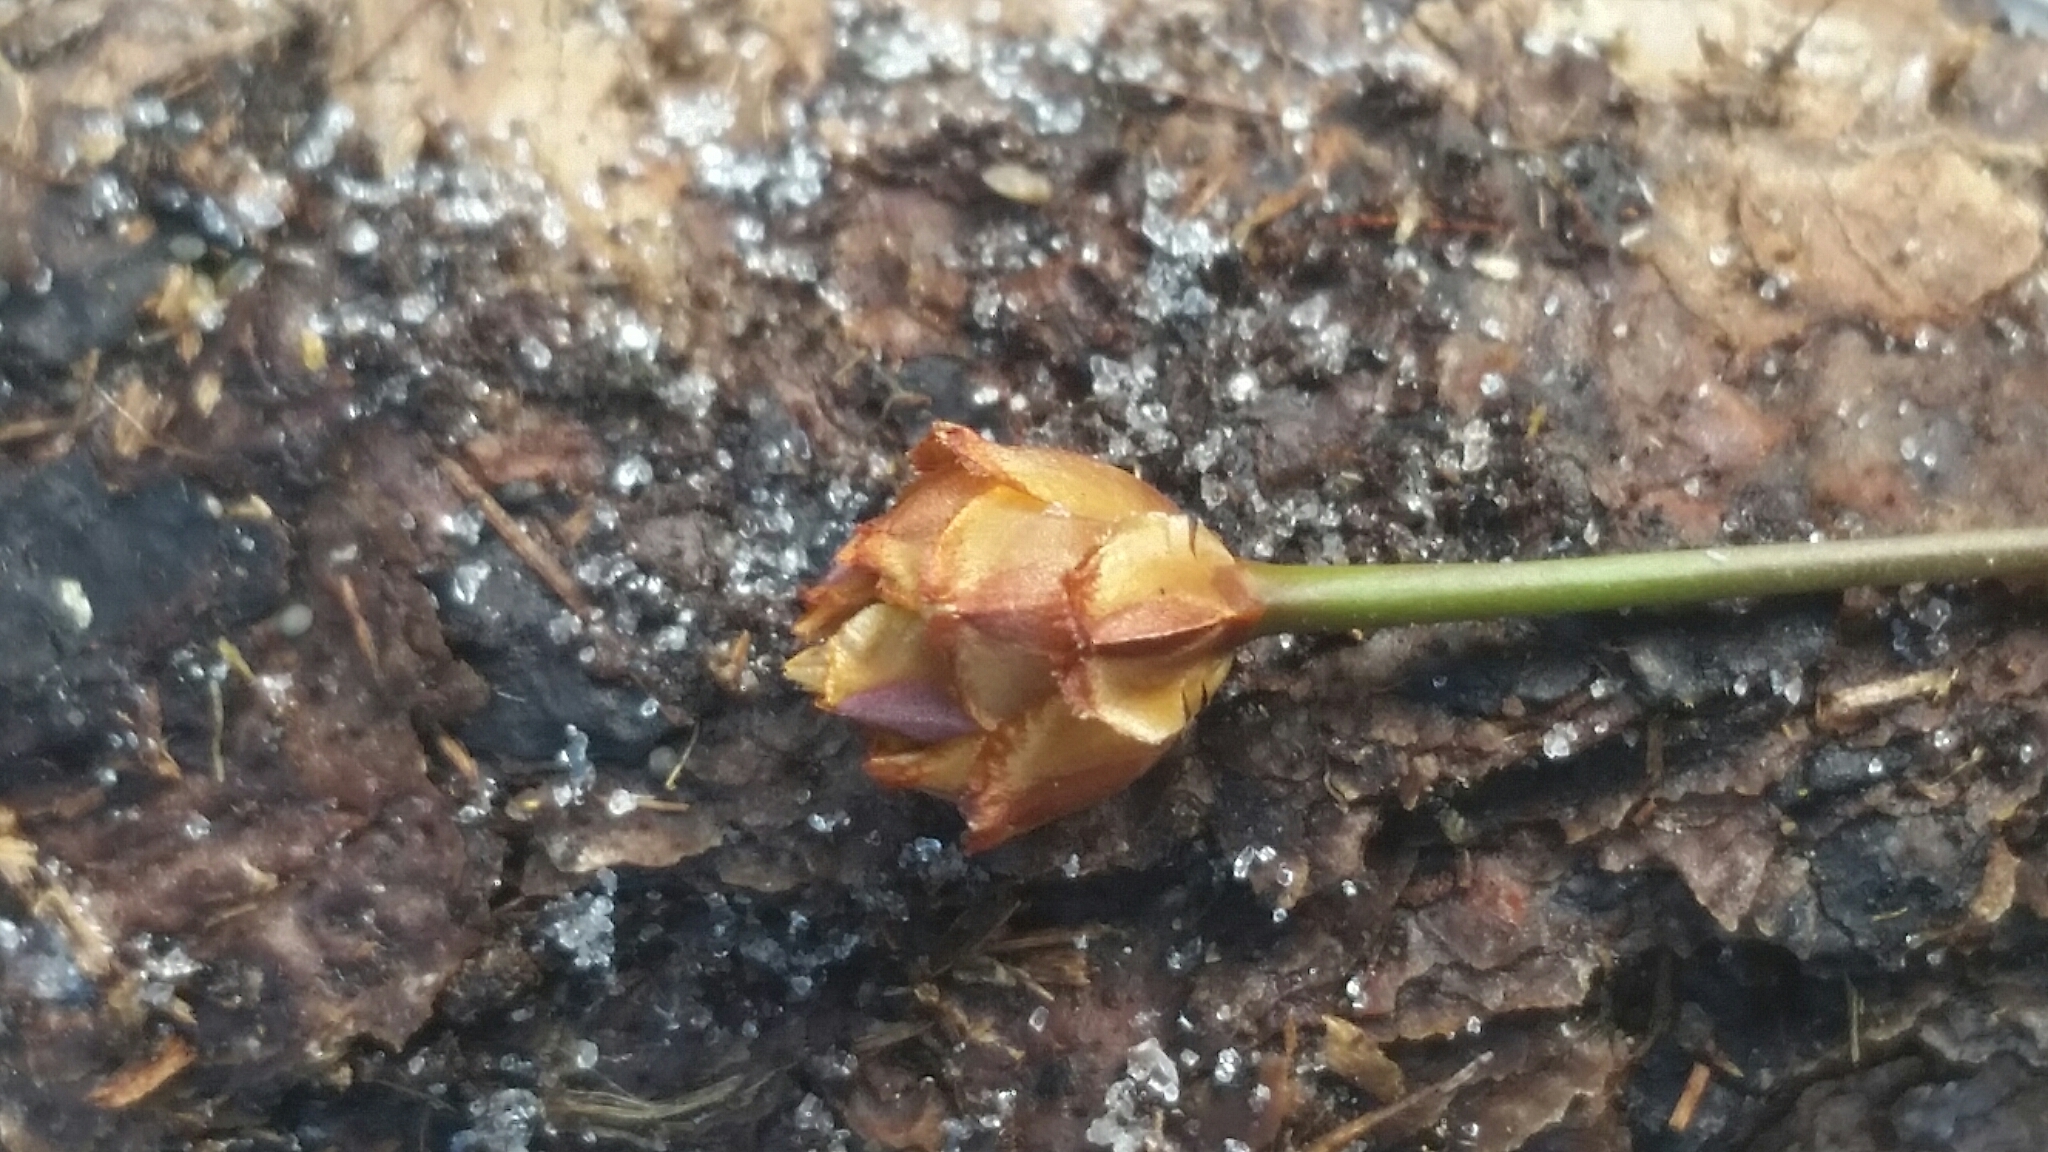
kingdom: Plantae
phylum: Tracheophyta
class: Liliopsida
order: Poales
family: Xyridaceae
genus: Xyris
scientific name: Xyris brevifolia
